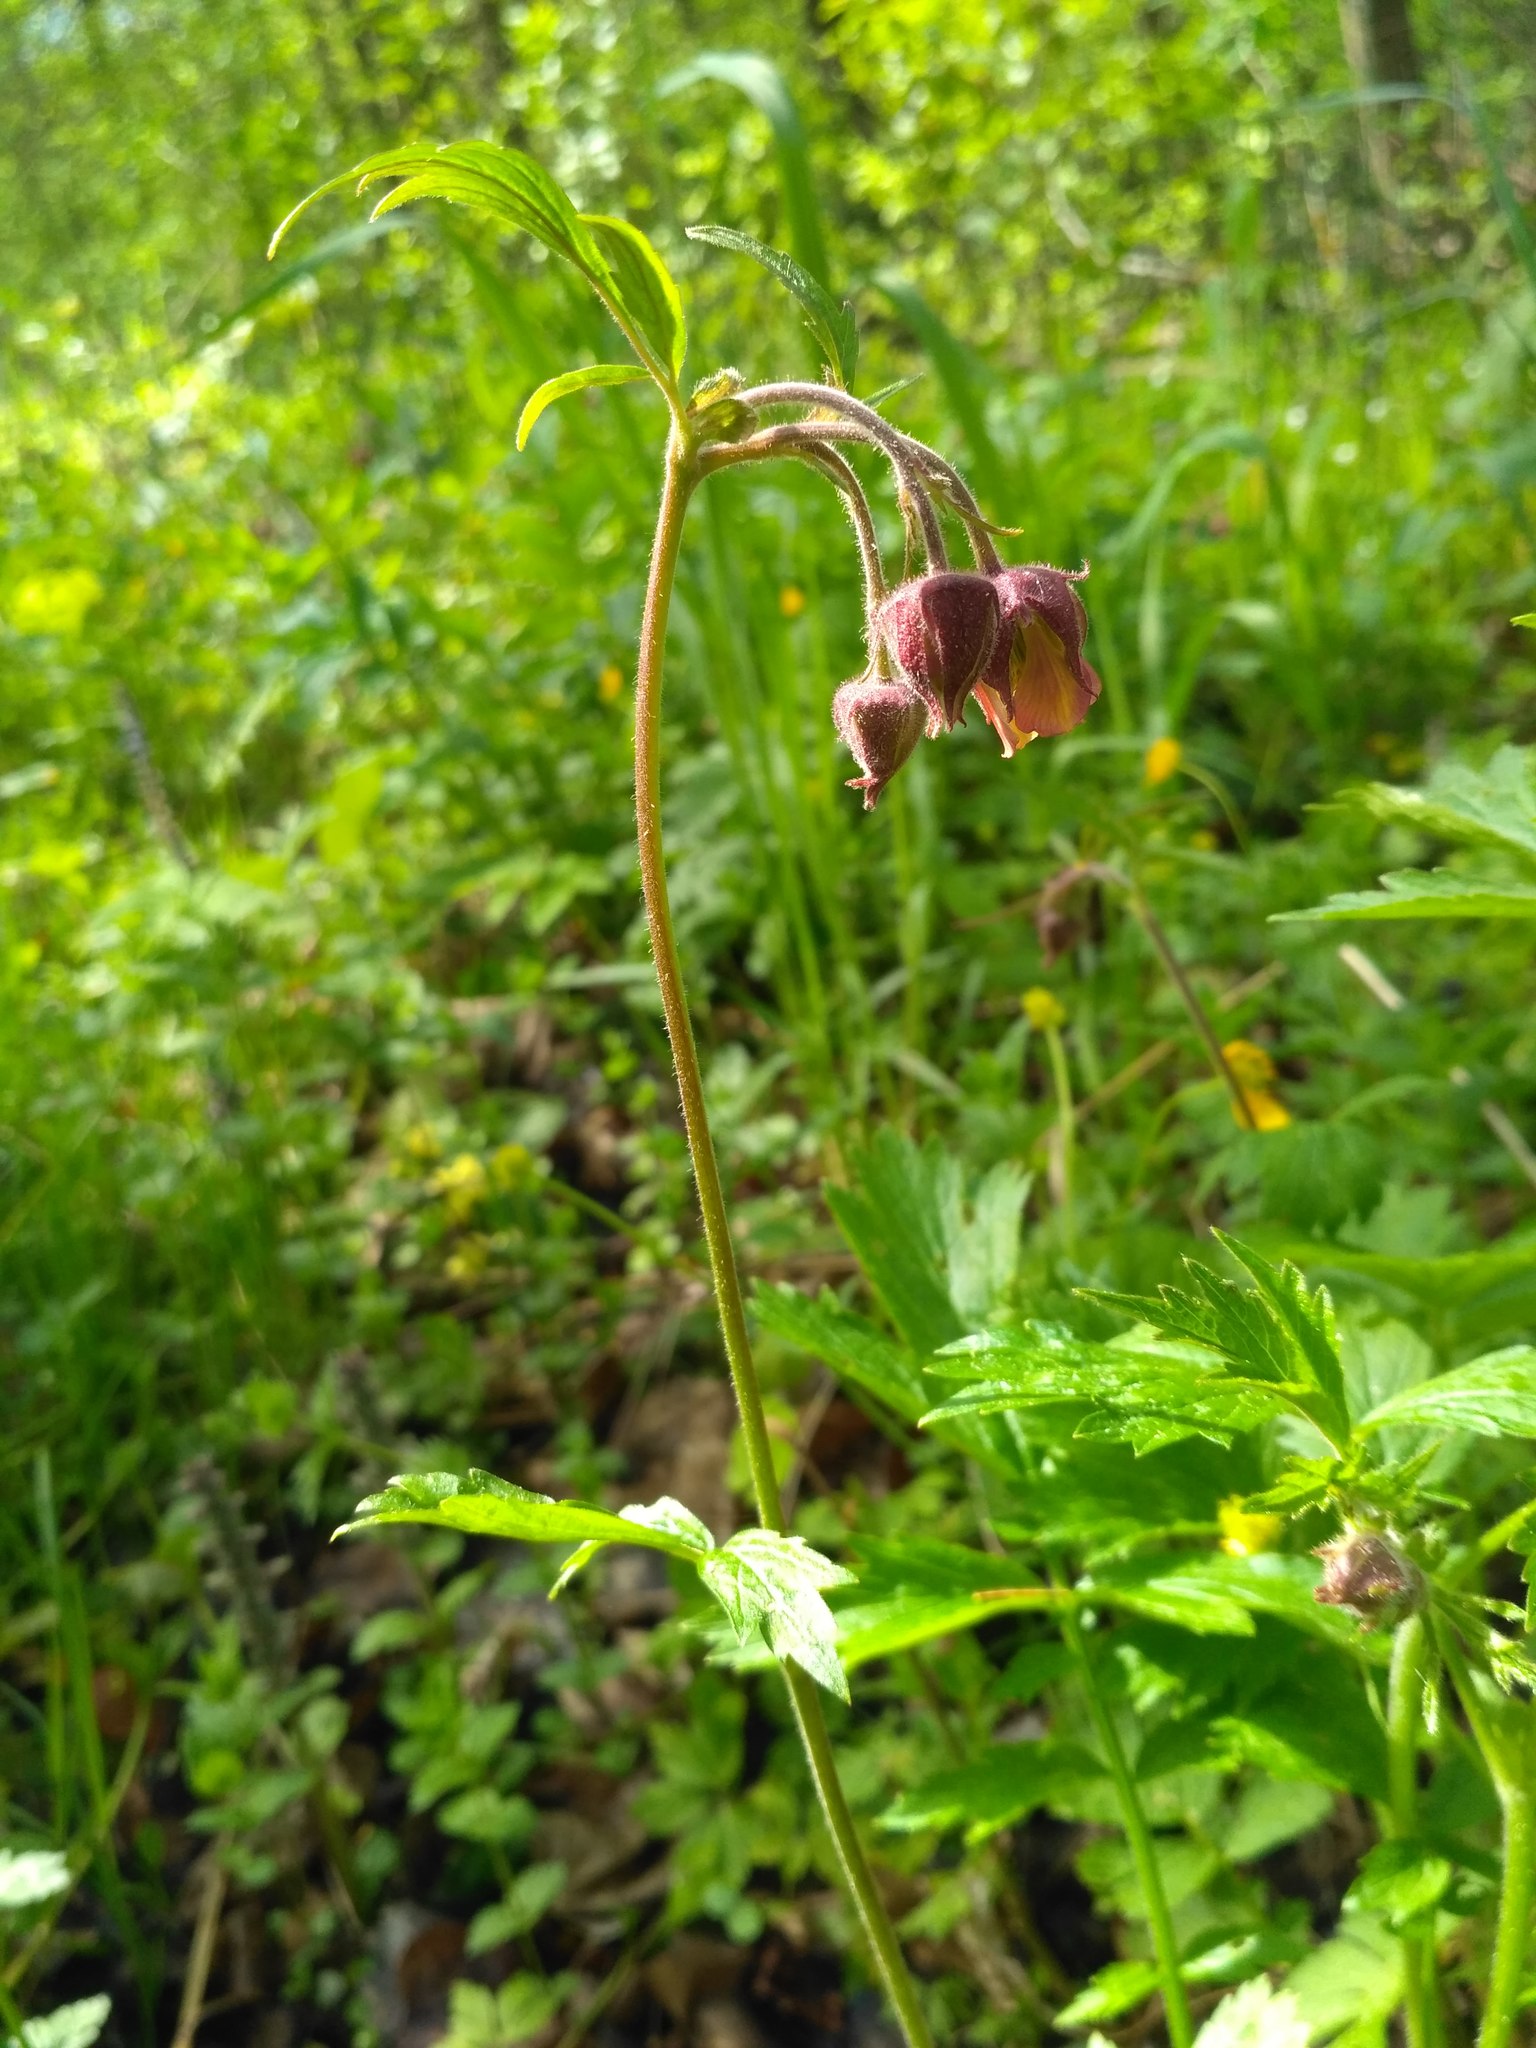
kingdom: Plantae
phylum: Tracheophyta
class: Magnoliopsida
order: Rosales
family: Rosaceae
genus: Geum
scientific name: Geum rivale
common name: Water avens
